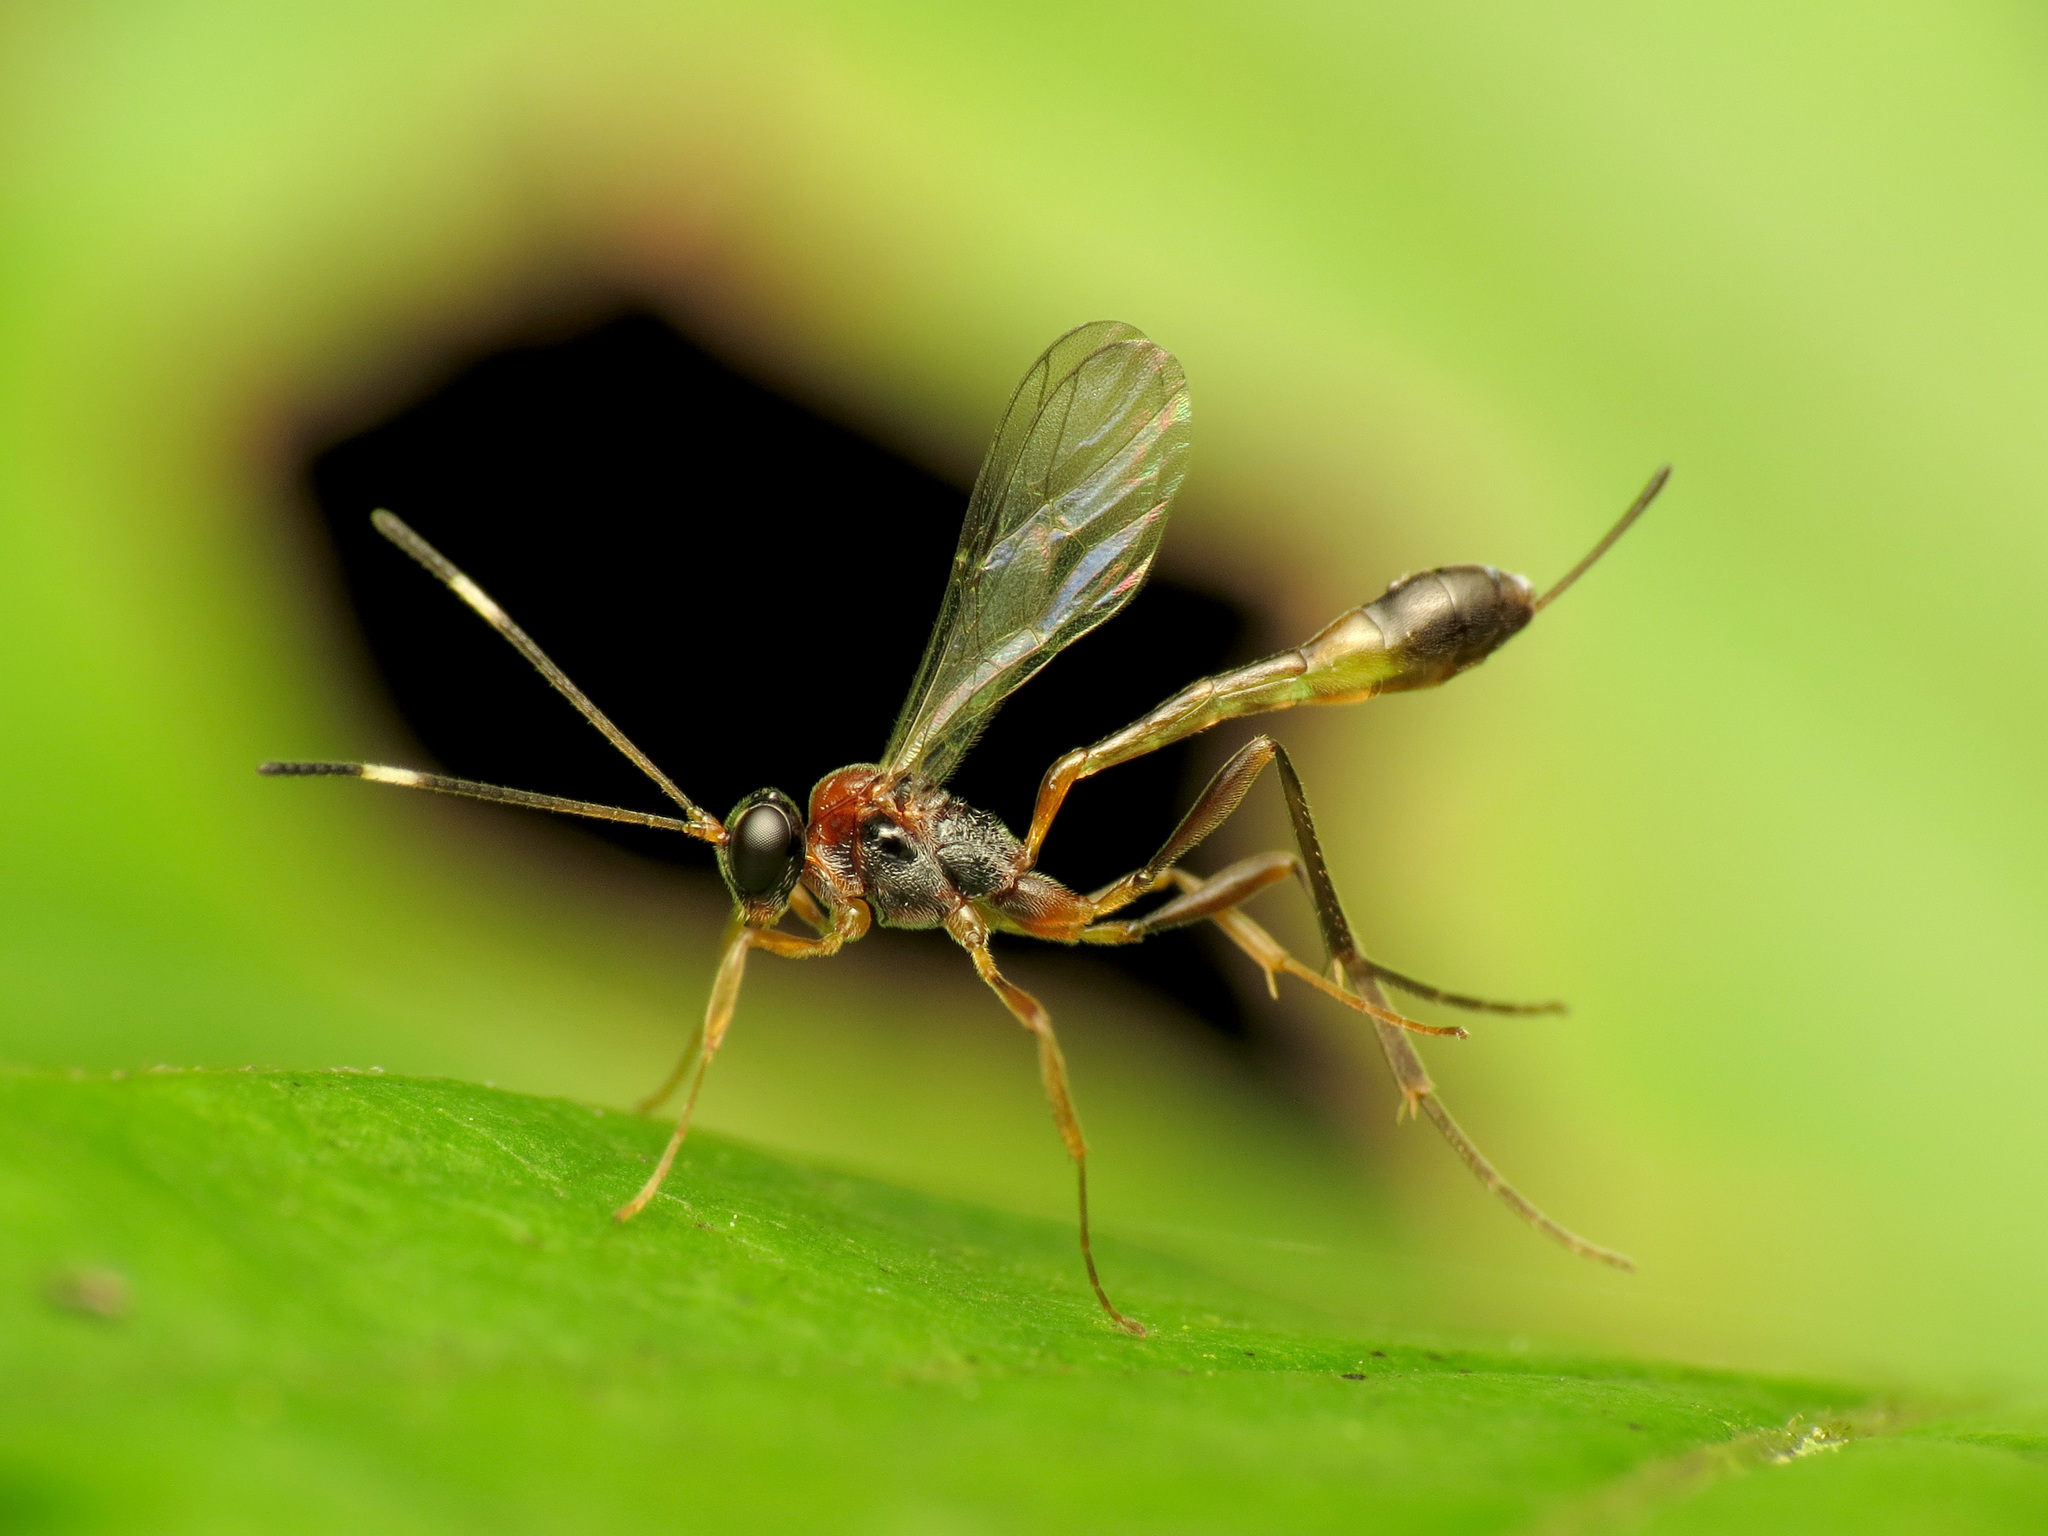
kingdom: Animalia
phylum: Arthropoda
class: Insecta
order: Hymenoptera
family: Ichneumonidae
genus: Anomalon
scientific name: Anomalon picticorne
